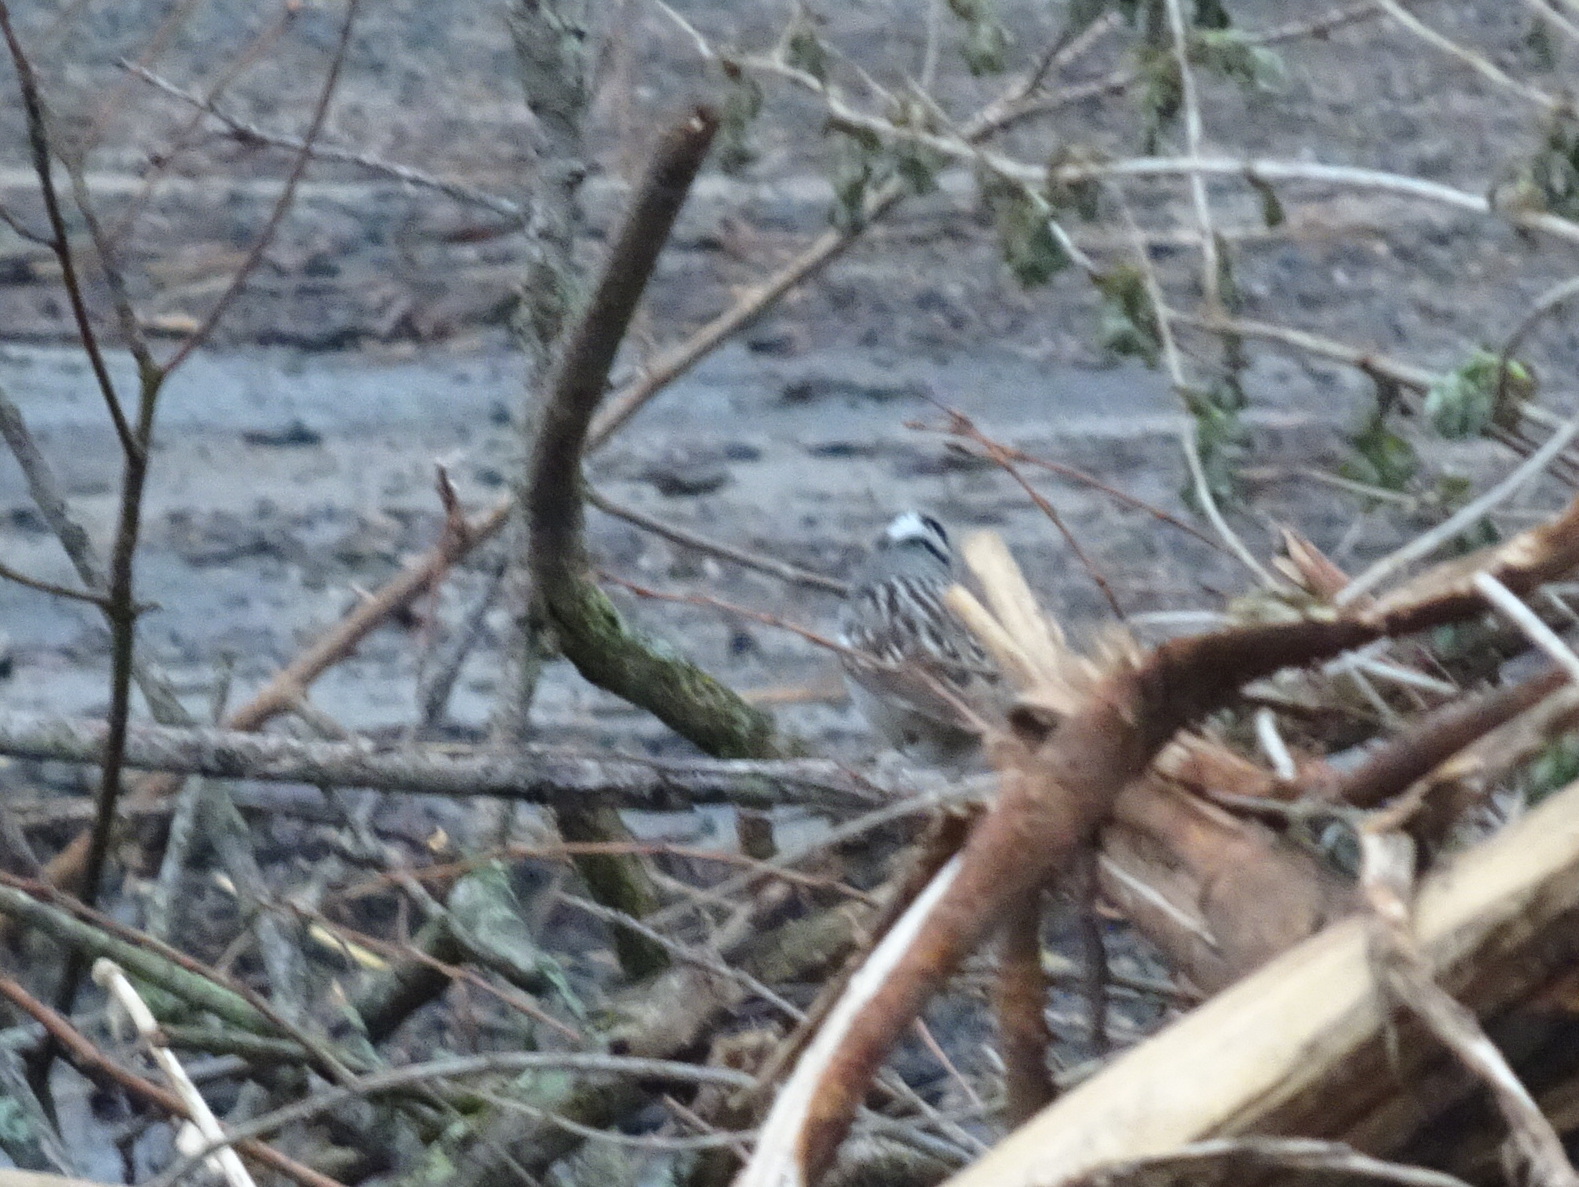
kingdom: Animalia
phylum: Chordata
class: Aves
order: Passeriformes
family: Passerellidae
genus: Zonotrichia
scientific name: Zonotrichia leucophrys
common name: White-crowned sparrow
